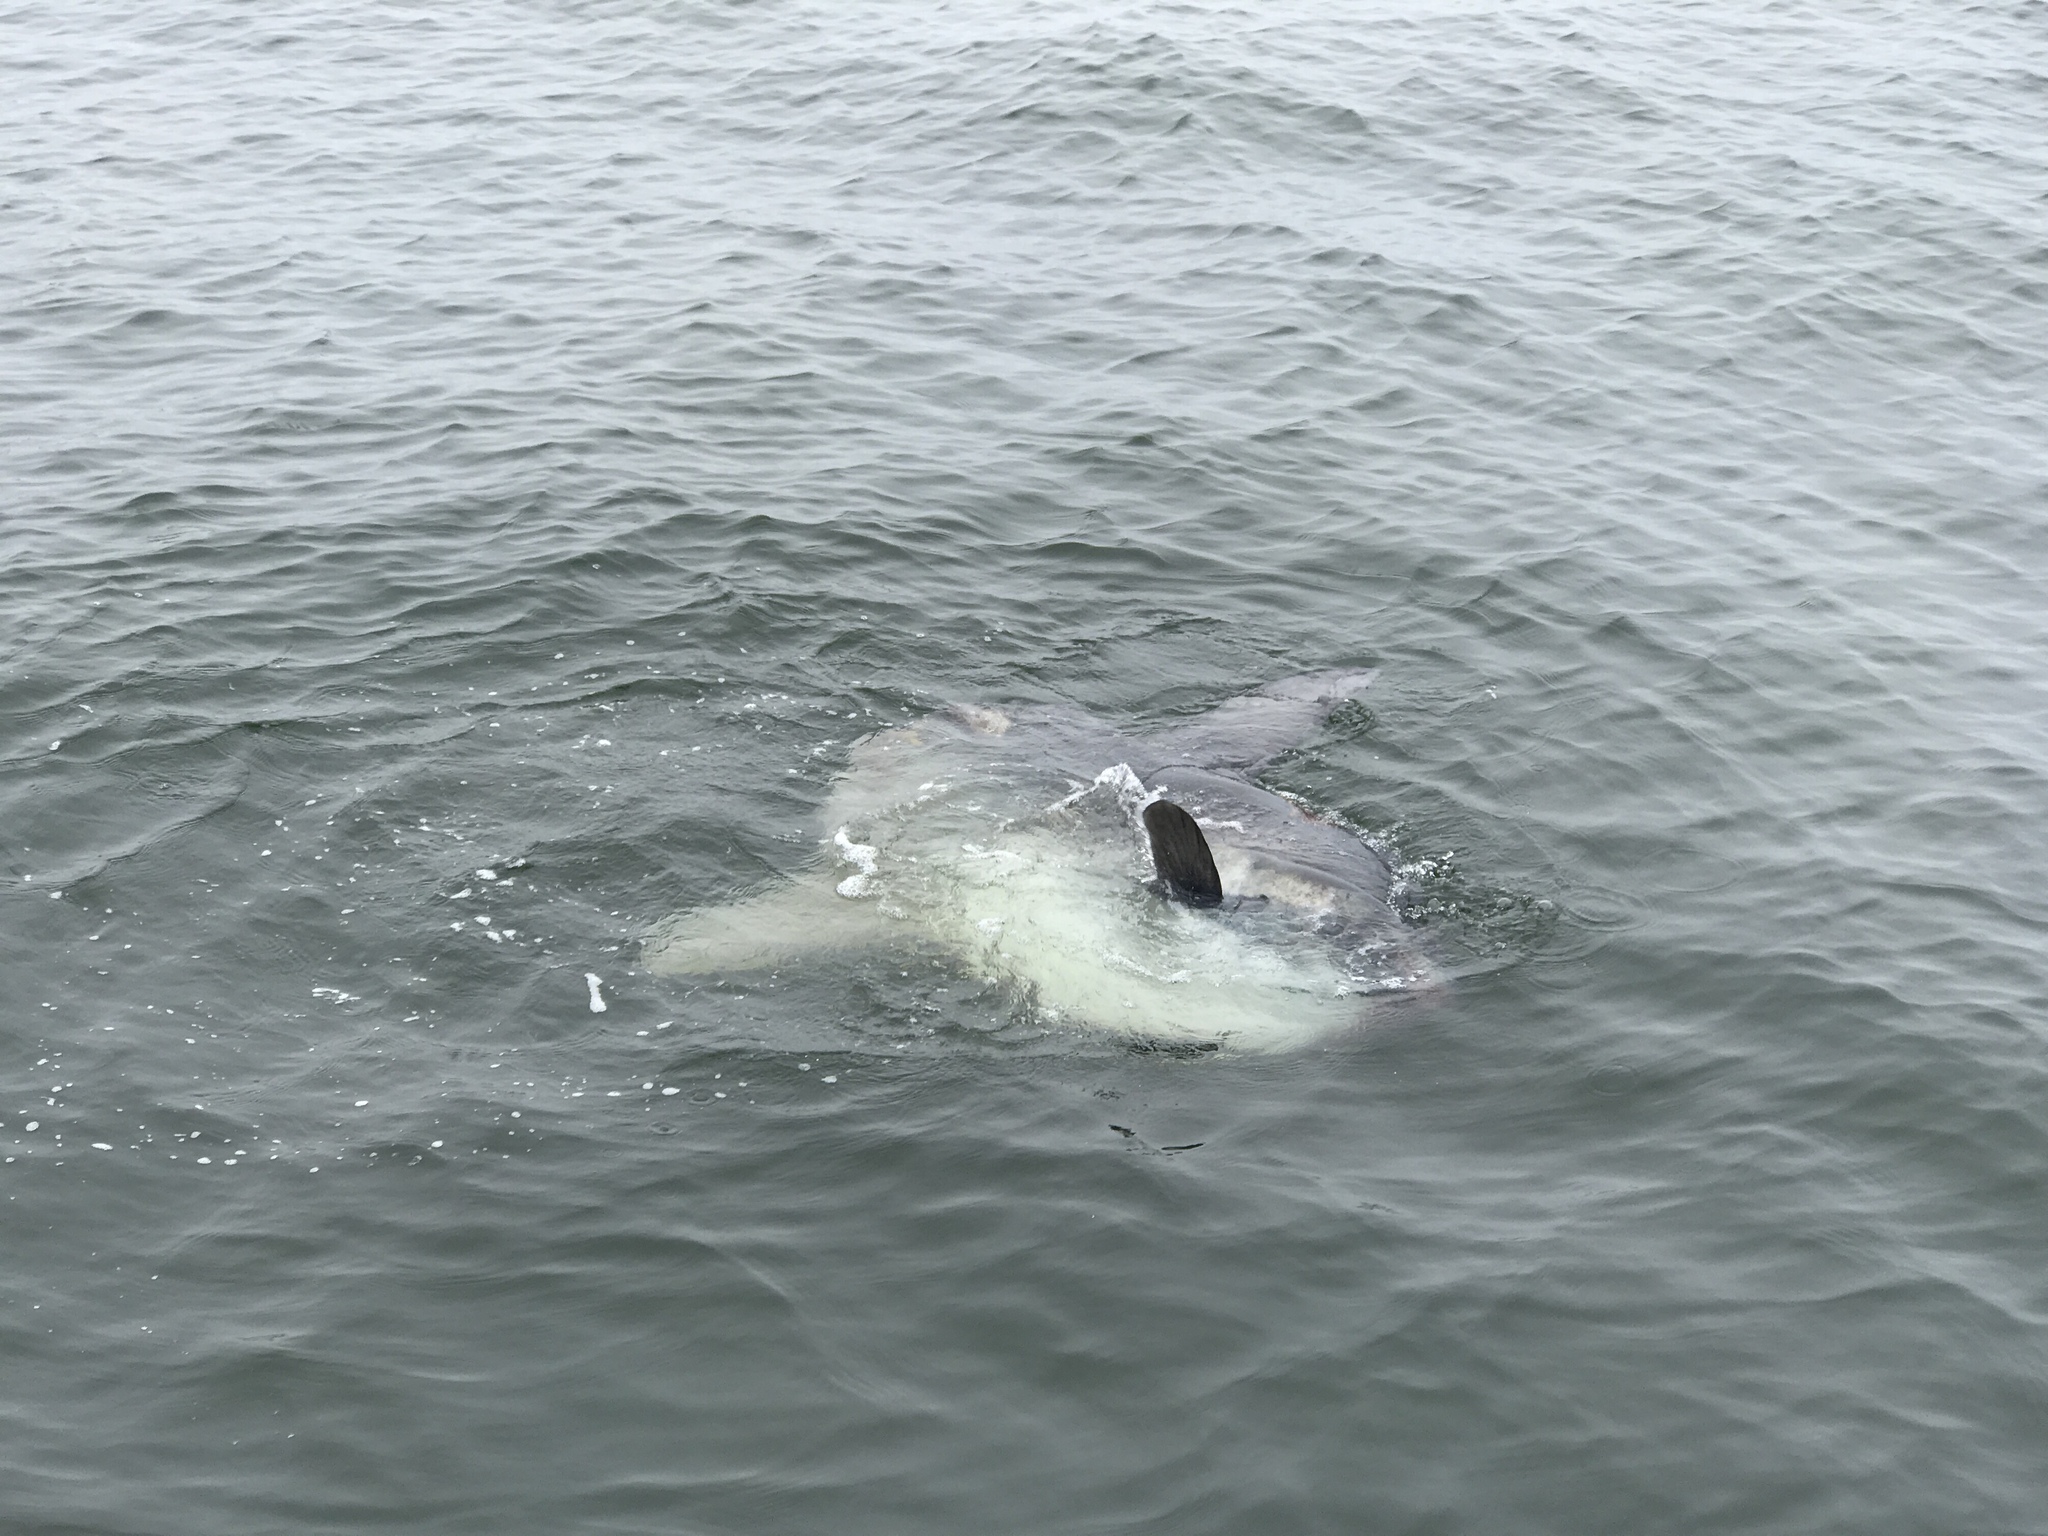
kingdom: Animalia
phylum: Chordata
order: Tetraodontiformes
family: Molidae
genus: Mola
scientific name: Mola mola
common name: Ocean sunfish
